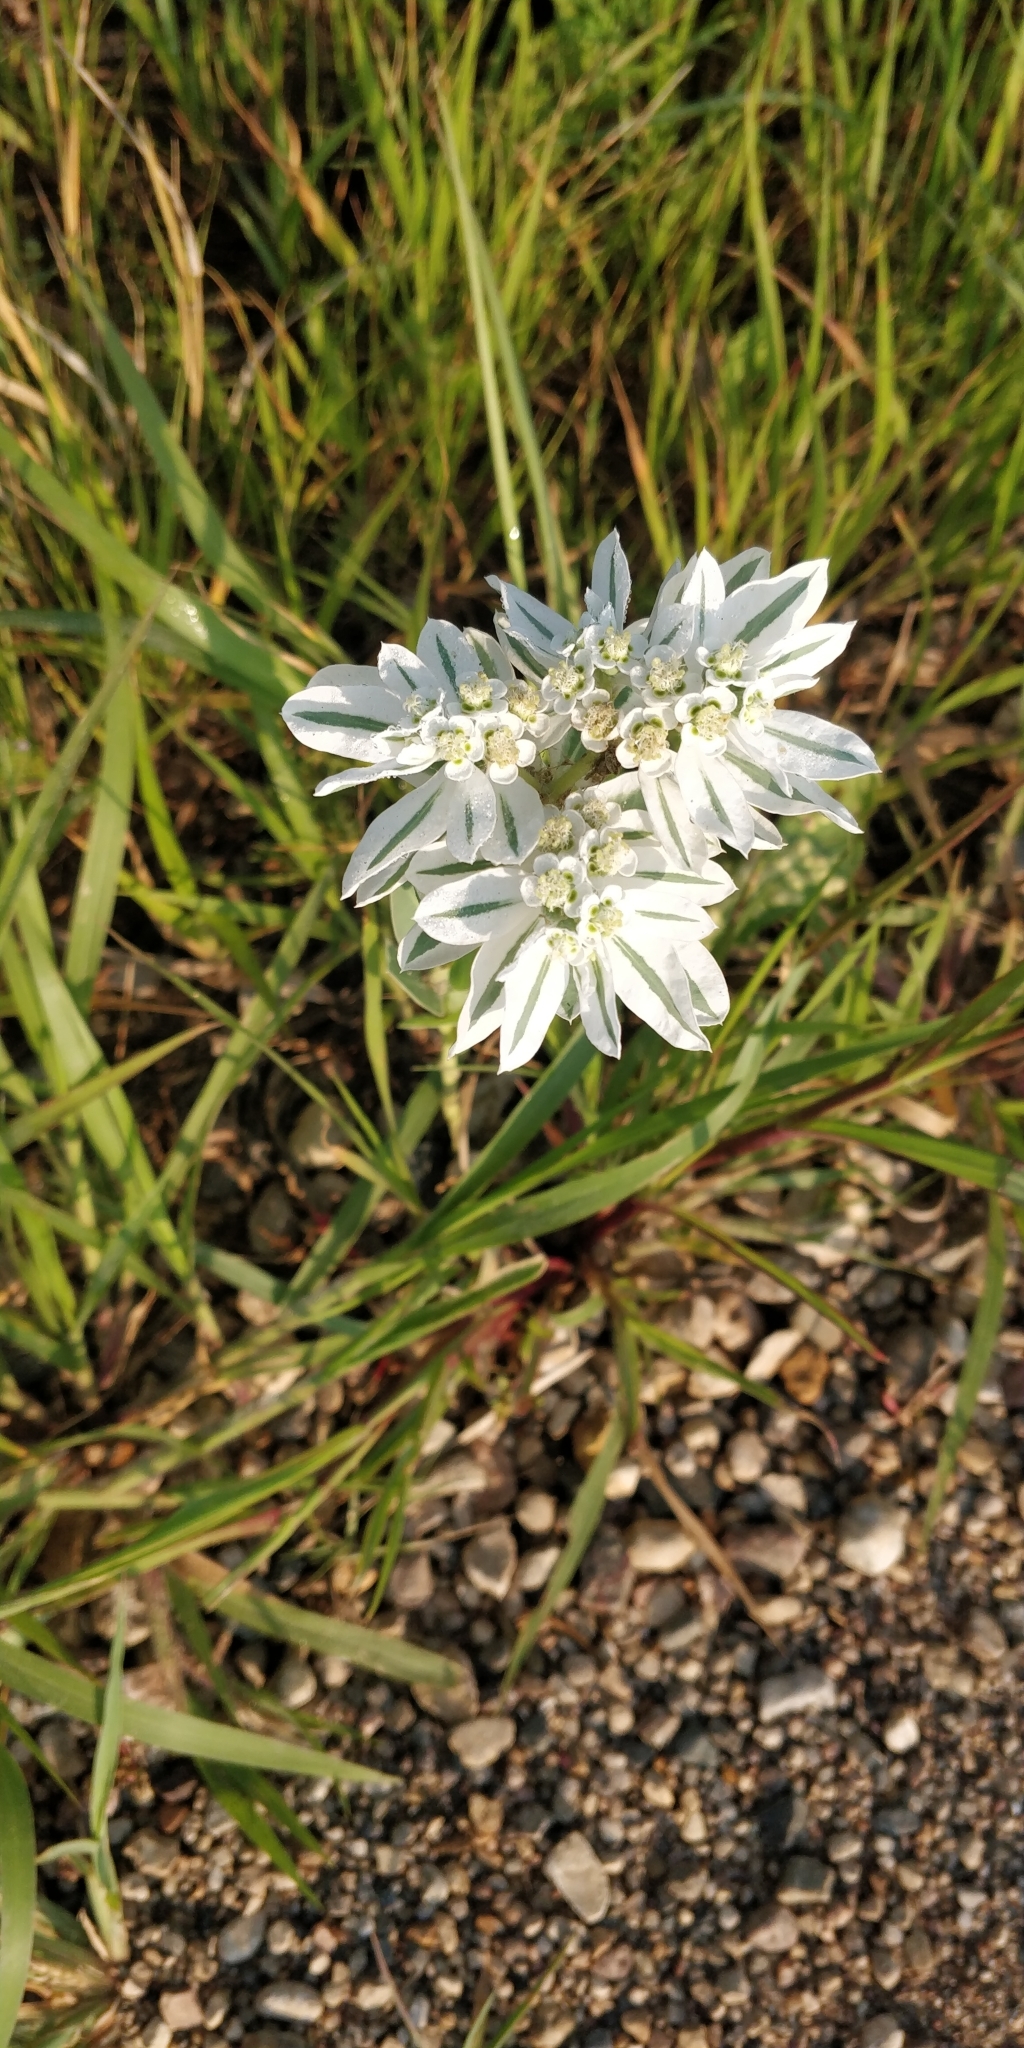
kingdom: Plantae
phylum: Tracheophyta
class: Magnoliopsida
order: Malpighiales
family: Euphorbiaceae
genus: Euphorbia
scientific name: Euphorbia marginata
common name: Ghostweed
